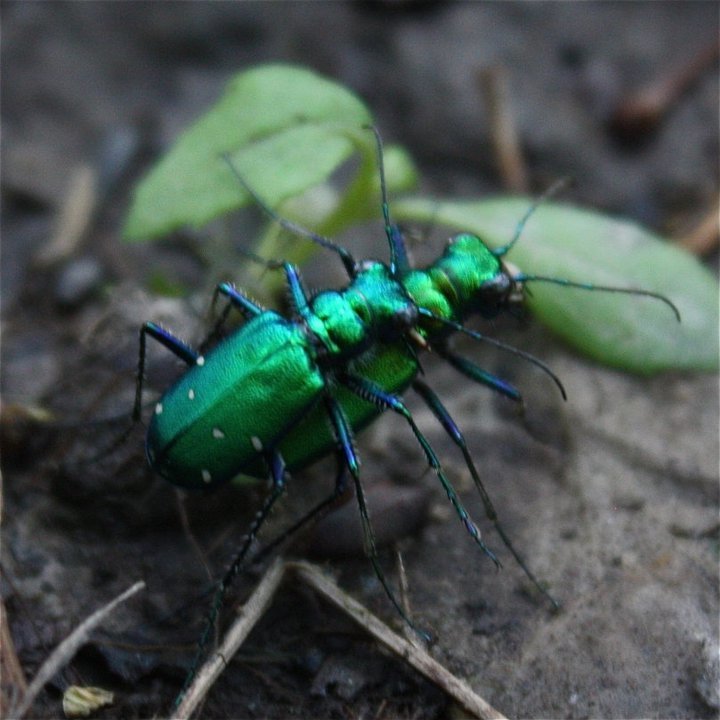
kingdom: Animalia
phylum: Arthropoda
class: Insecta
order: Coleoptera
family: Carabidae
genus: Cicindela
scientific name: Cicindela sexguttata
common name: Six-spotted tiger beetle
